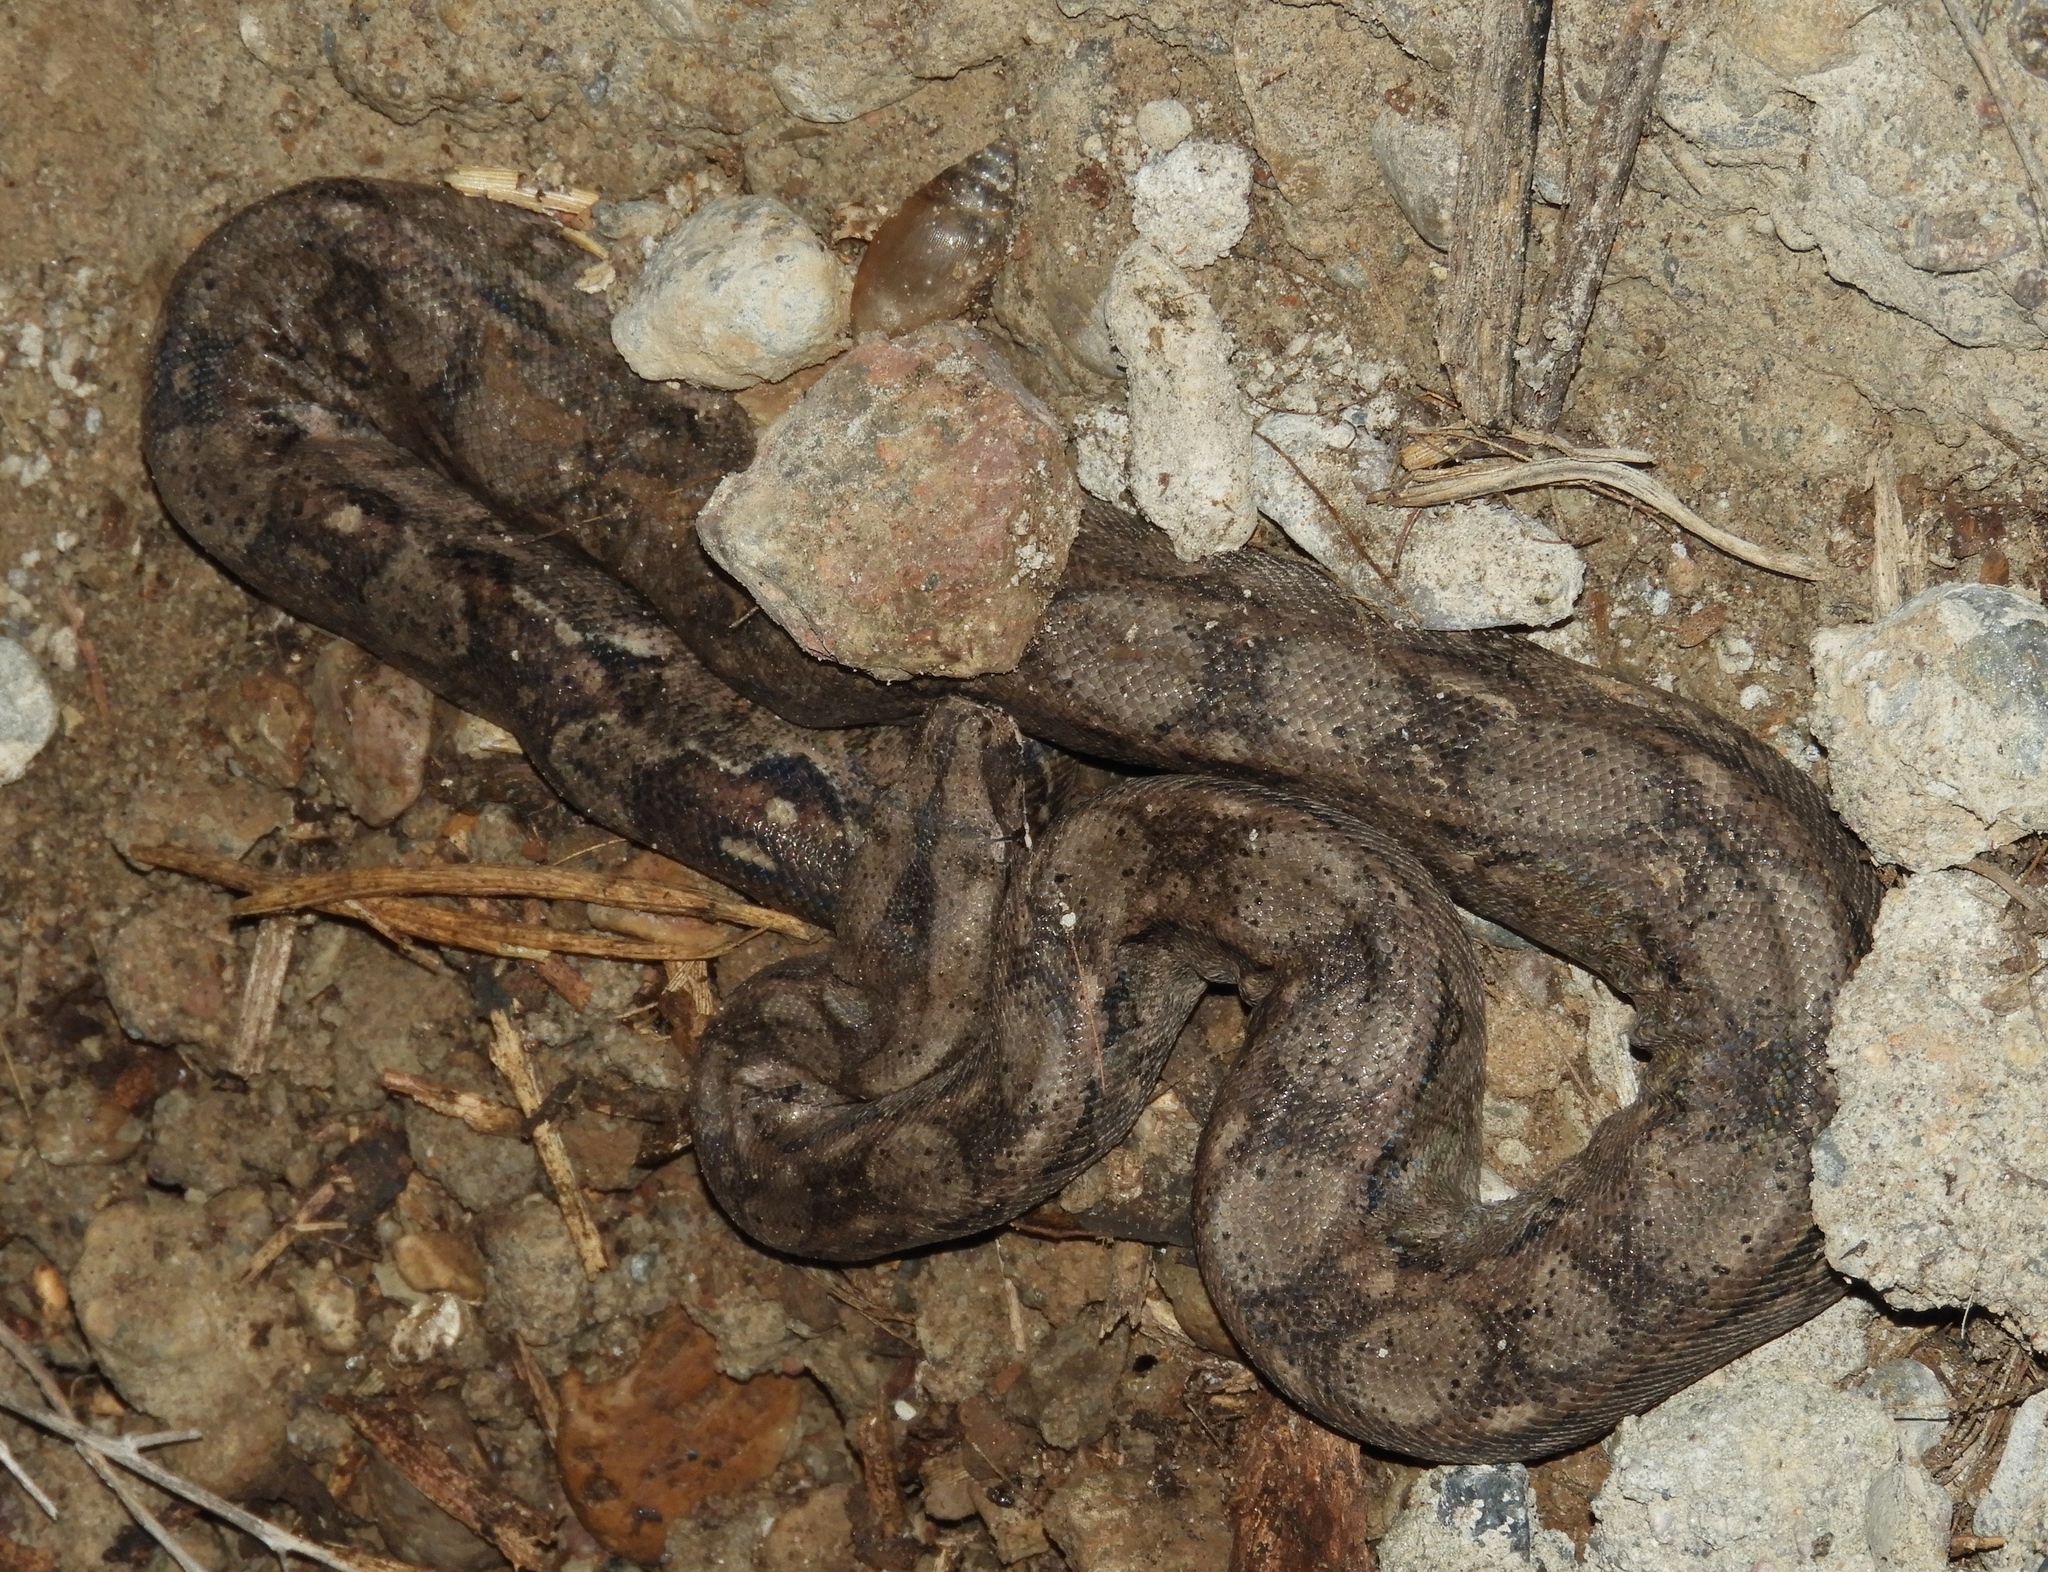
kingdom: Animalia
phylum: Chordata
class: Squamata
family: Boidae
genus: Boa
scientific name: Boa
